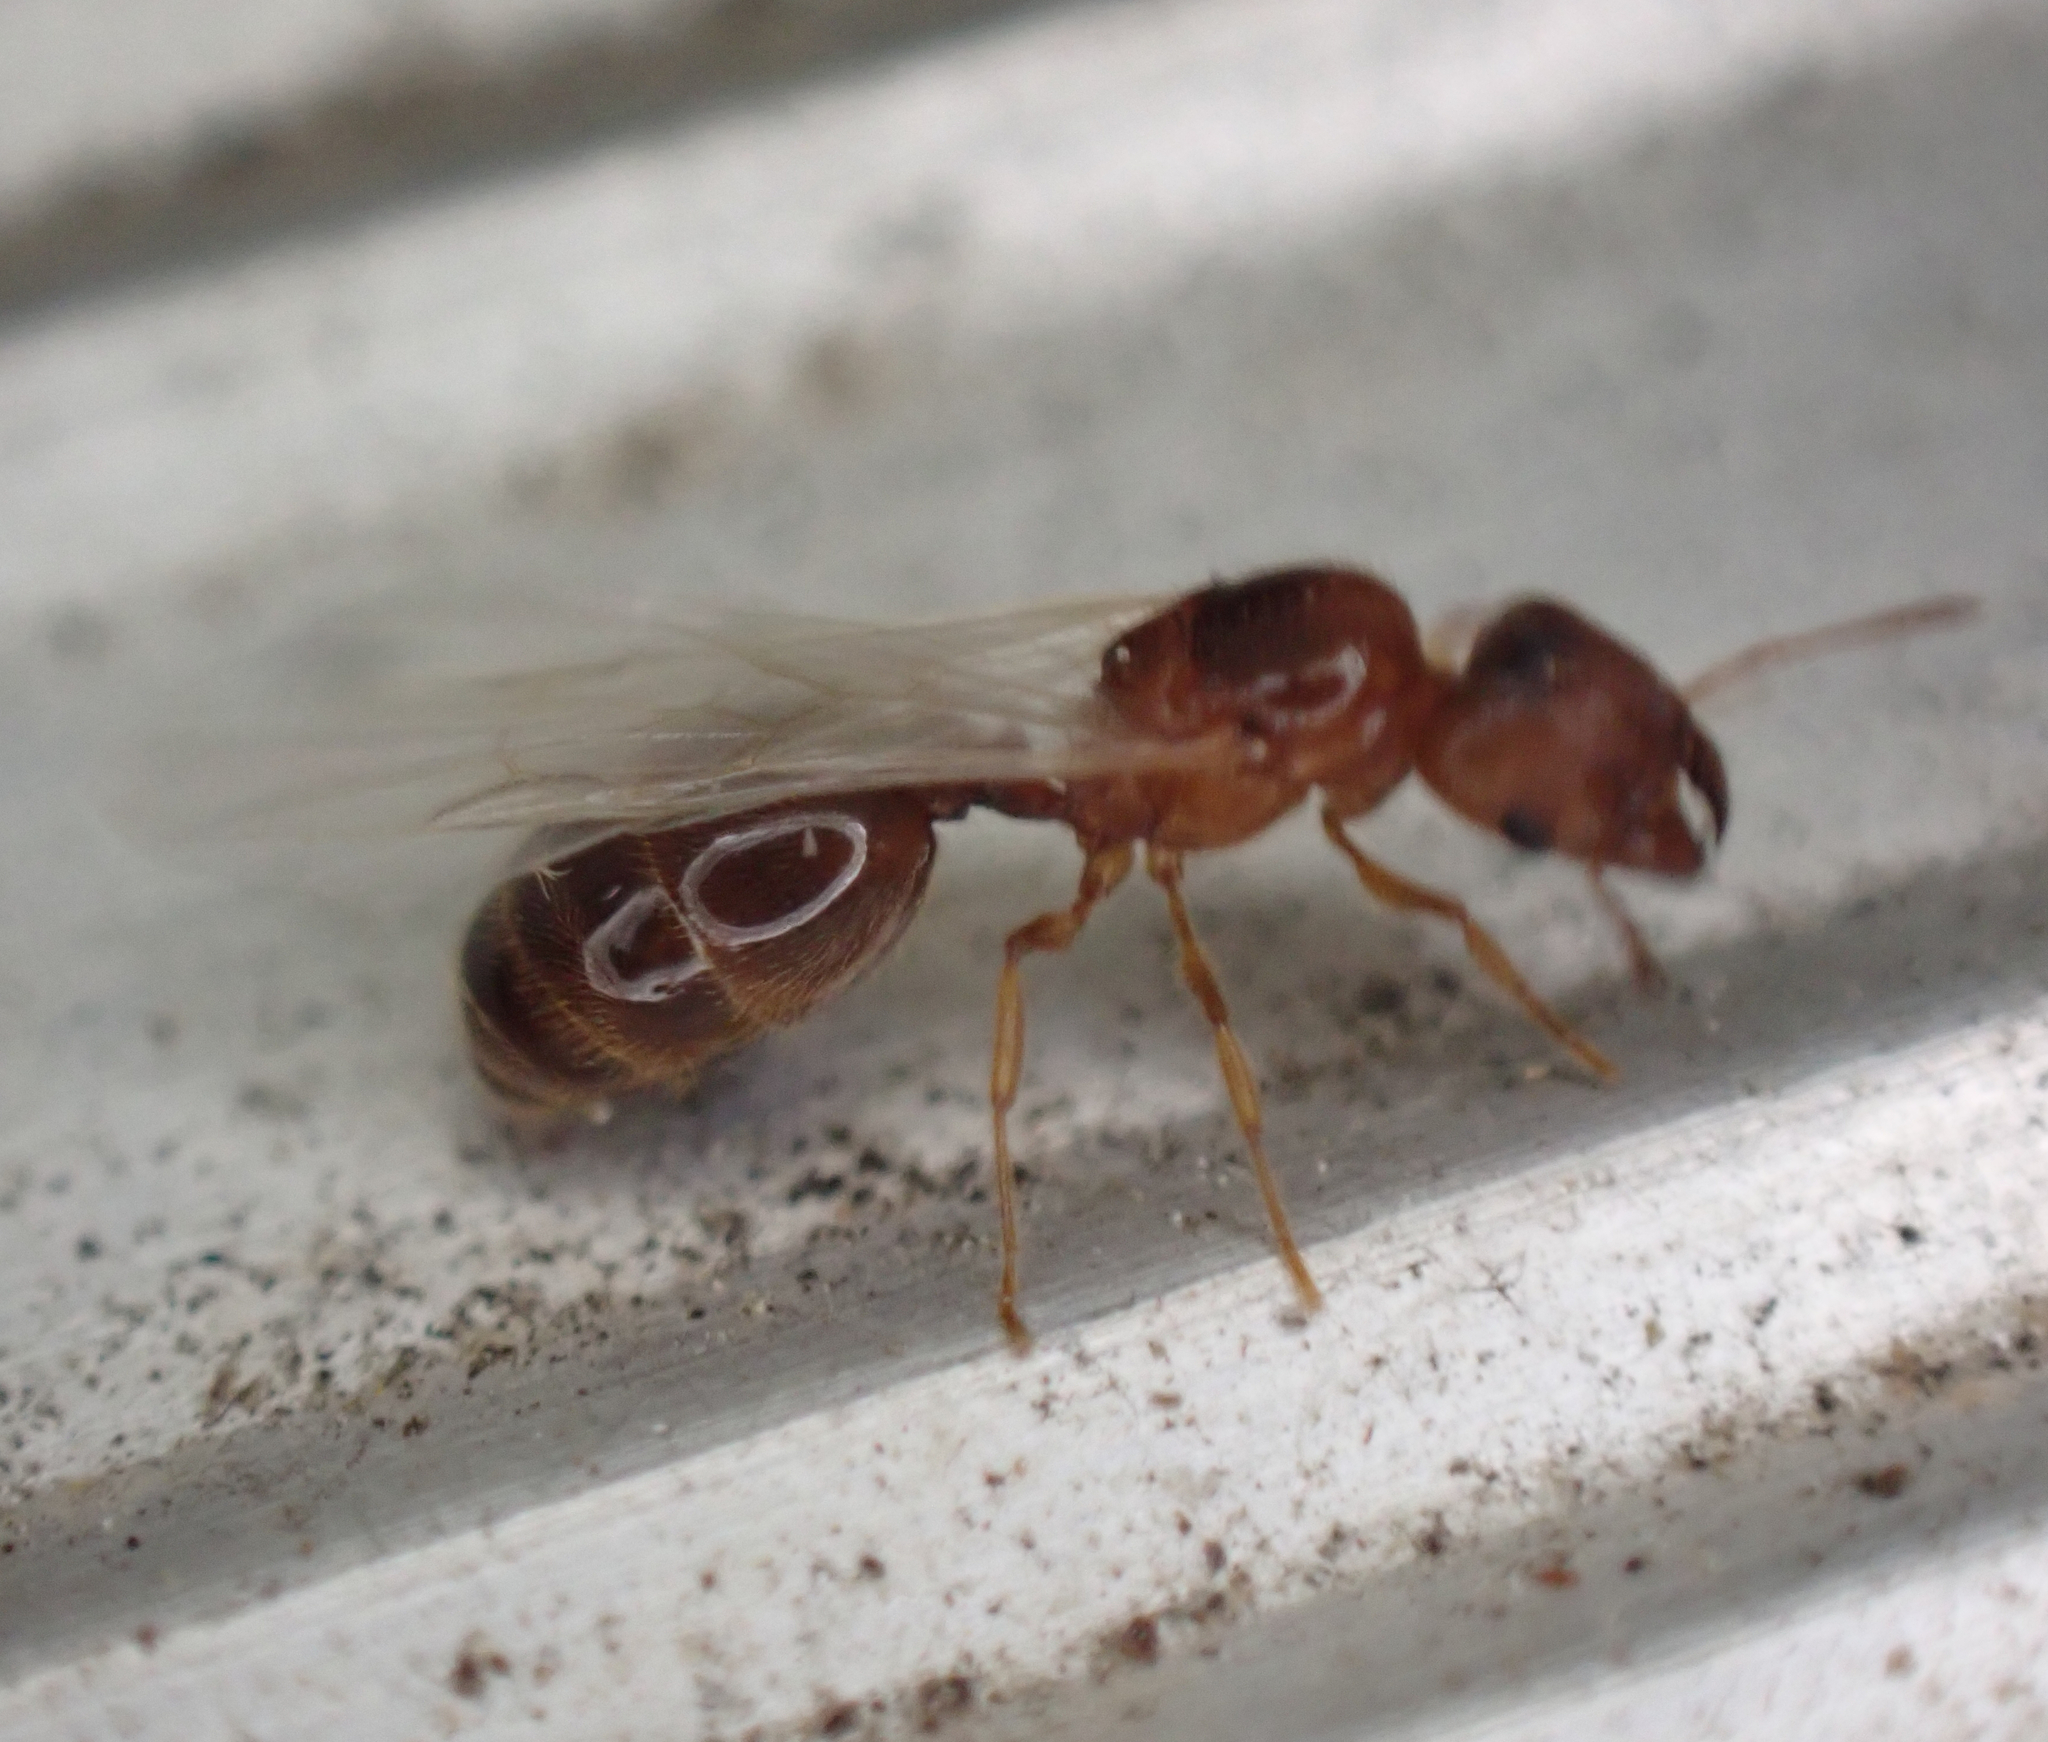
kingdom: Animalia
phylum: Arthropoda
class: Insecta
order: Hymenoptera
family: Formicidae
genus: Pheidole
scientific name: Pheidole bicarinata
